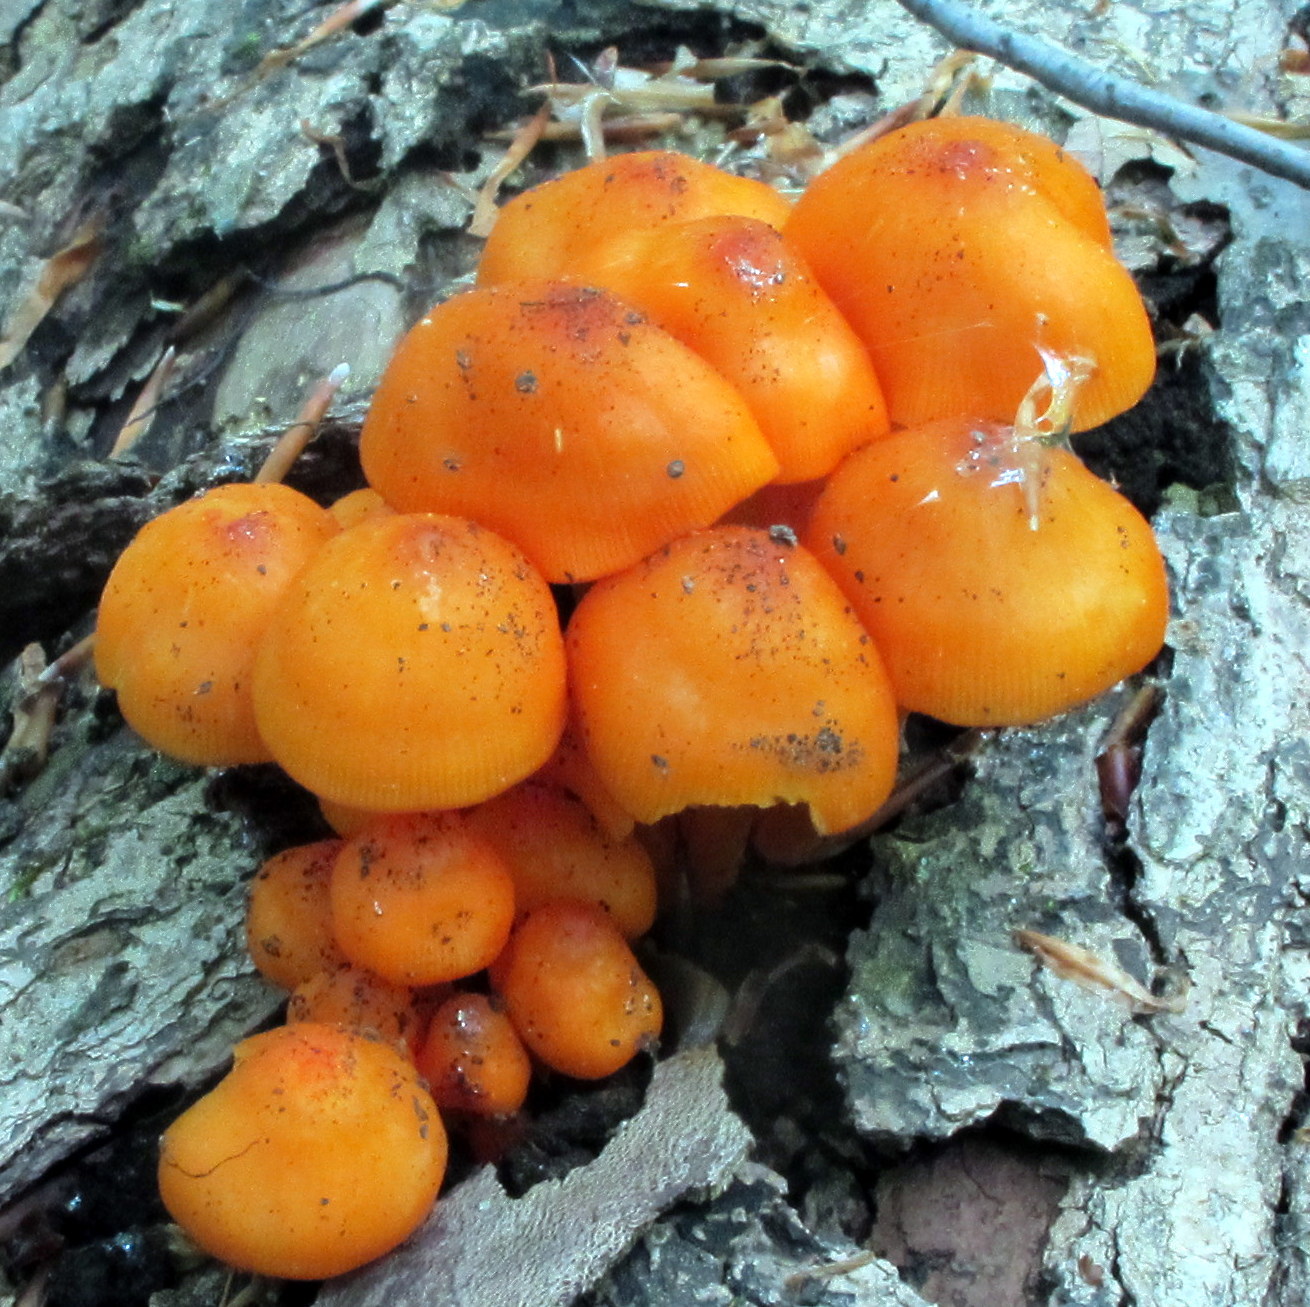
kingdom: Fungi
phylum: Basidiomycota
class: Agaricomycetes
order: Agaricales
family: Mycenaceae
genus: Mycena
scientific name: Mycena leaiana
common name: Orange mycena
